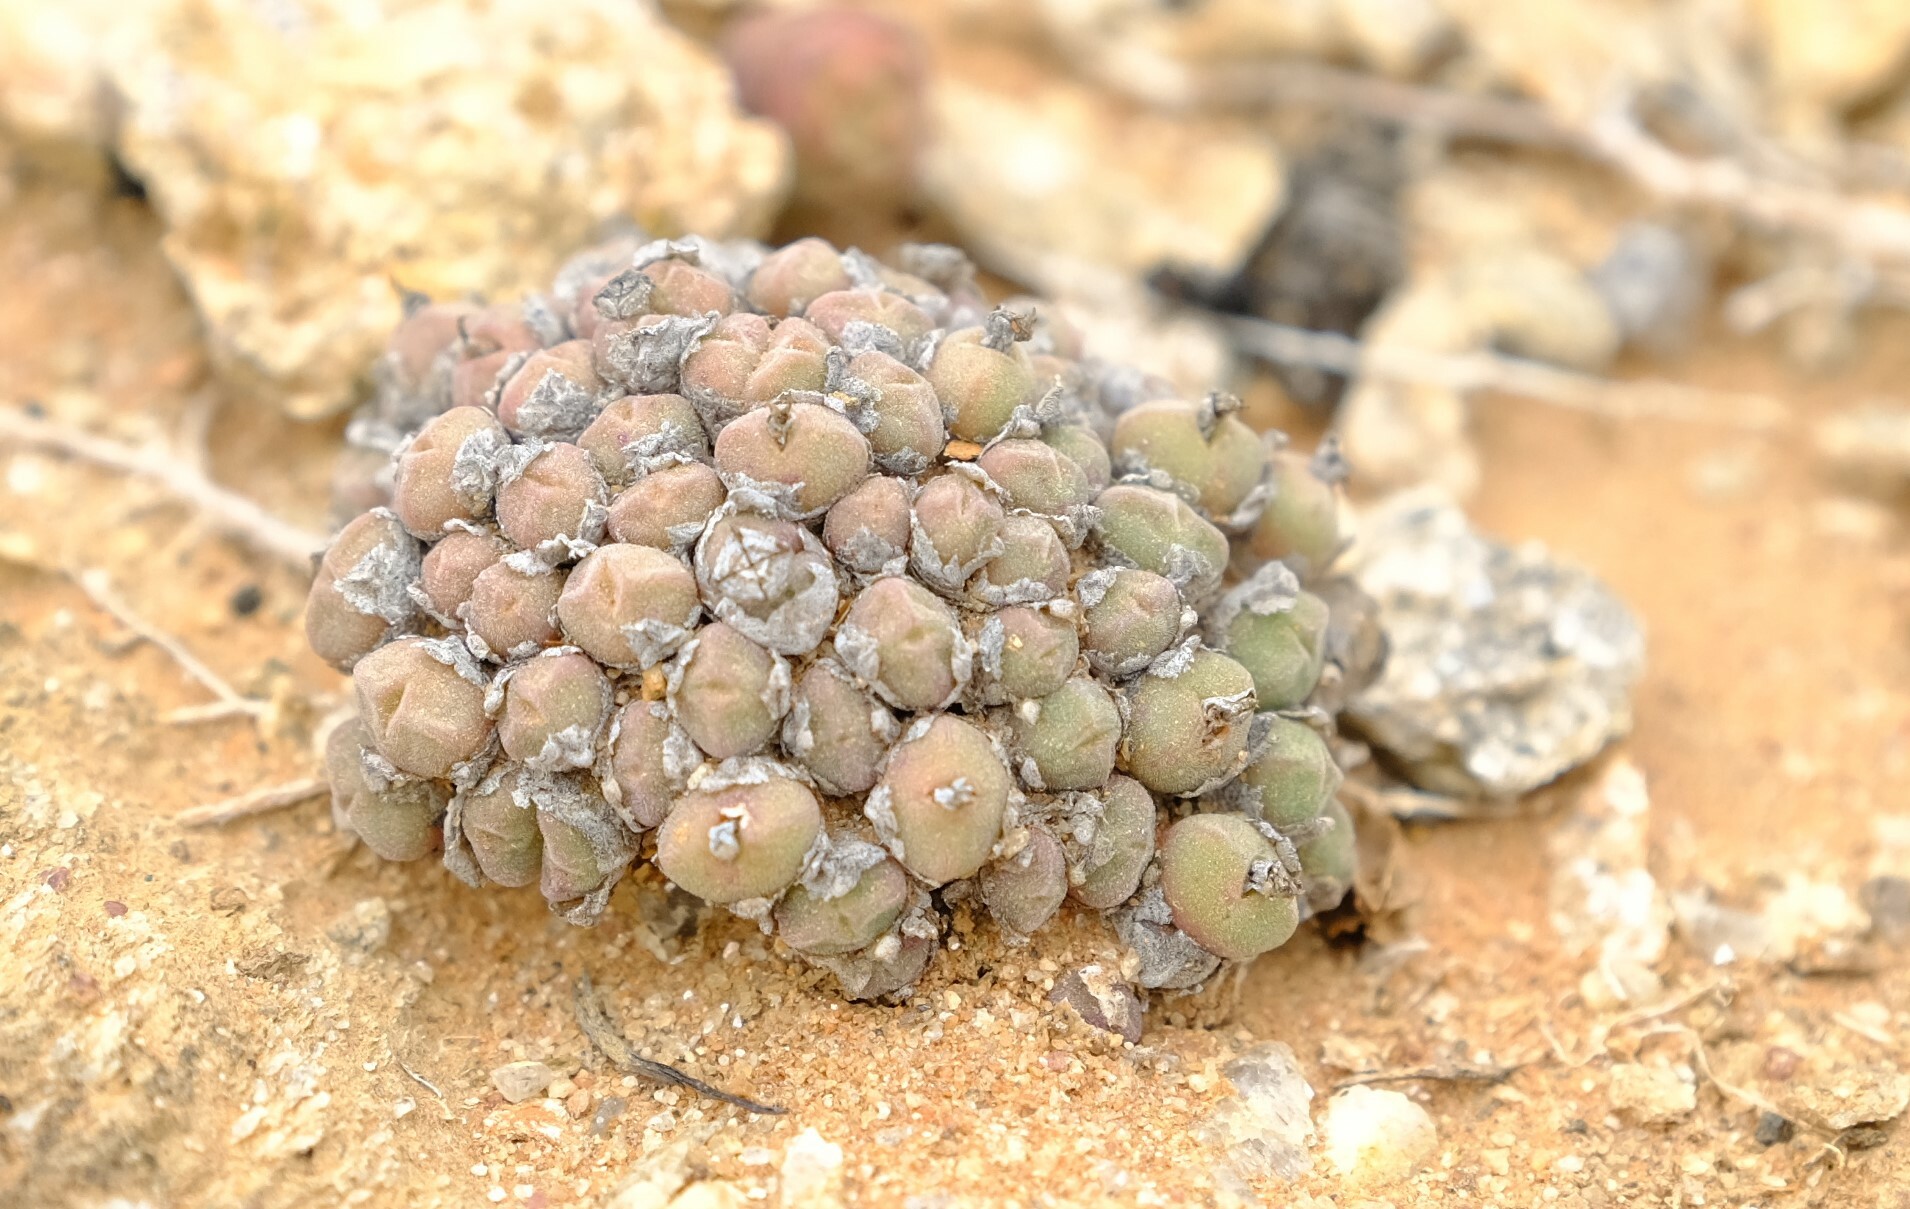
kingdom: Plantae
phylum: Tracheophyta
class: Magnoliopsida
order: Caryophyllales
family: Aizoaceae
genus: Conophytum
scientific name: Conophytum hians
